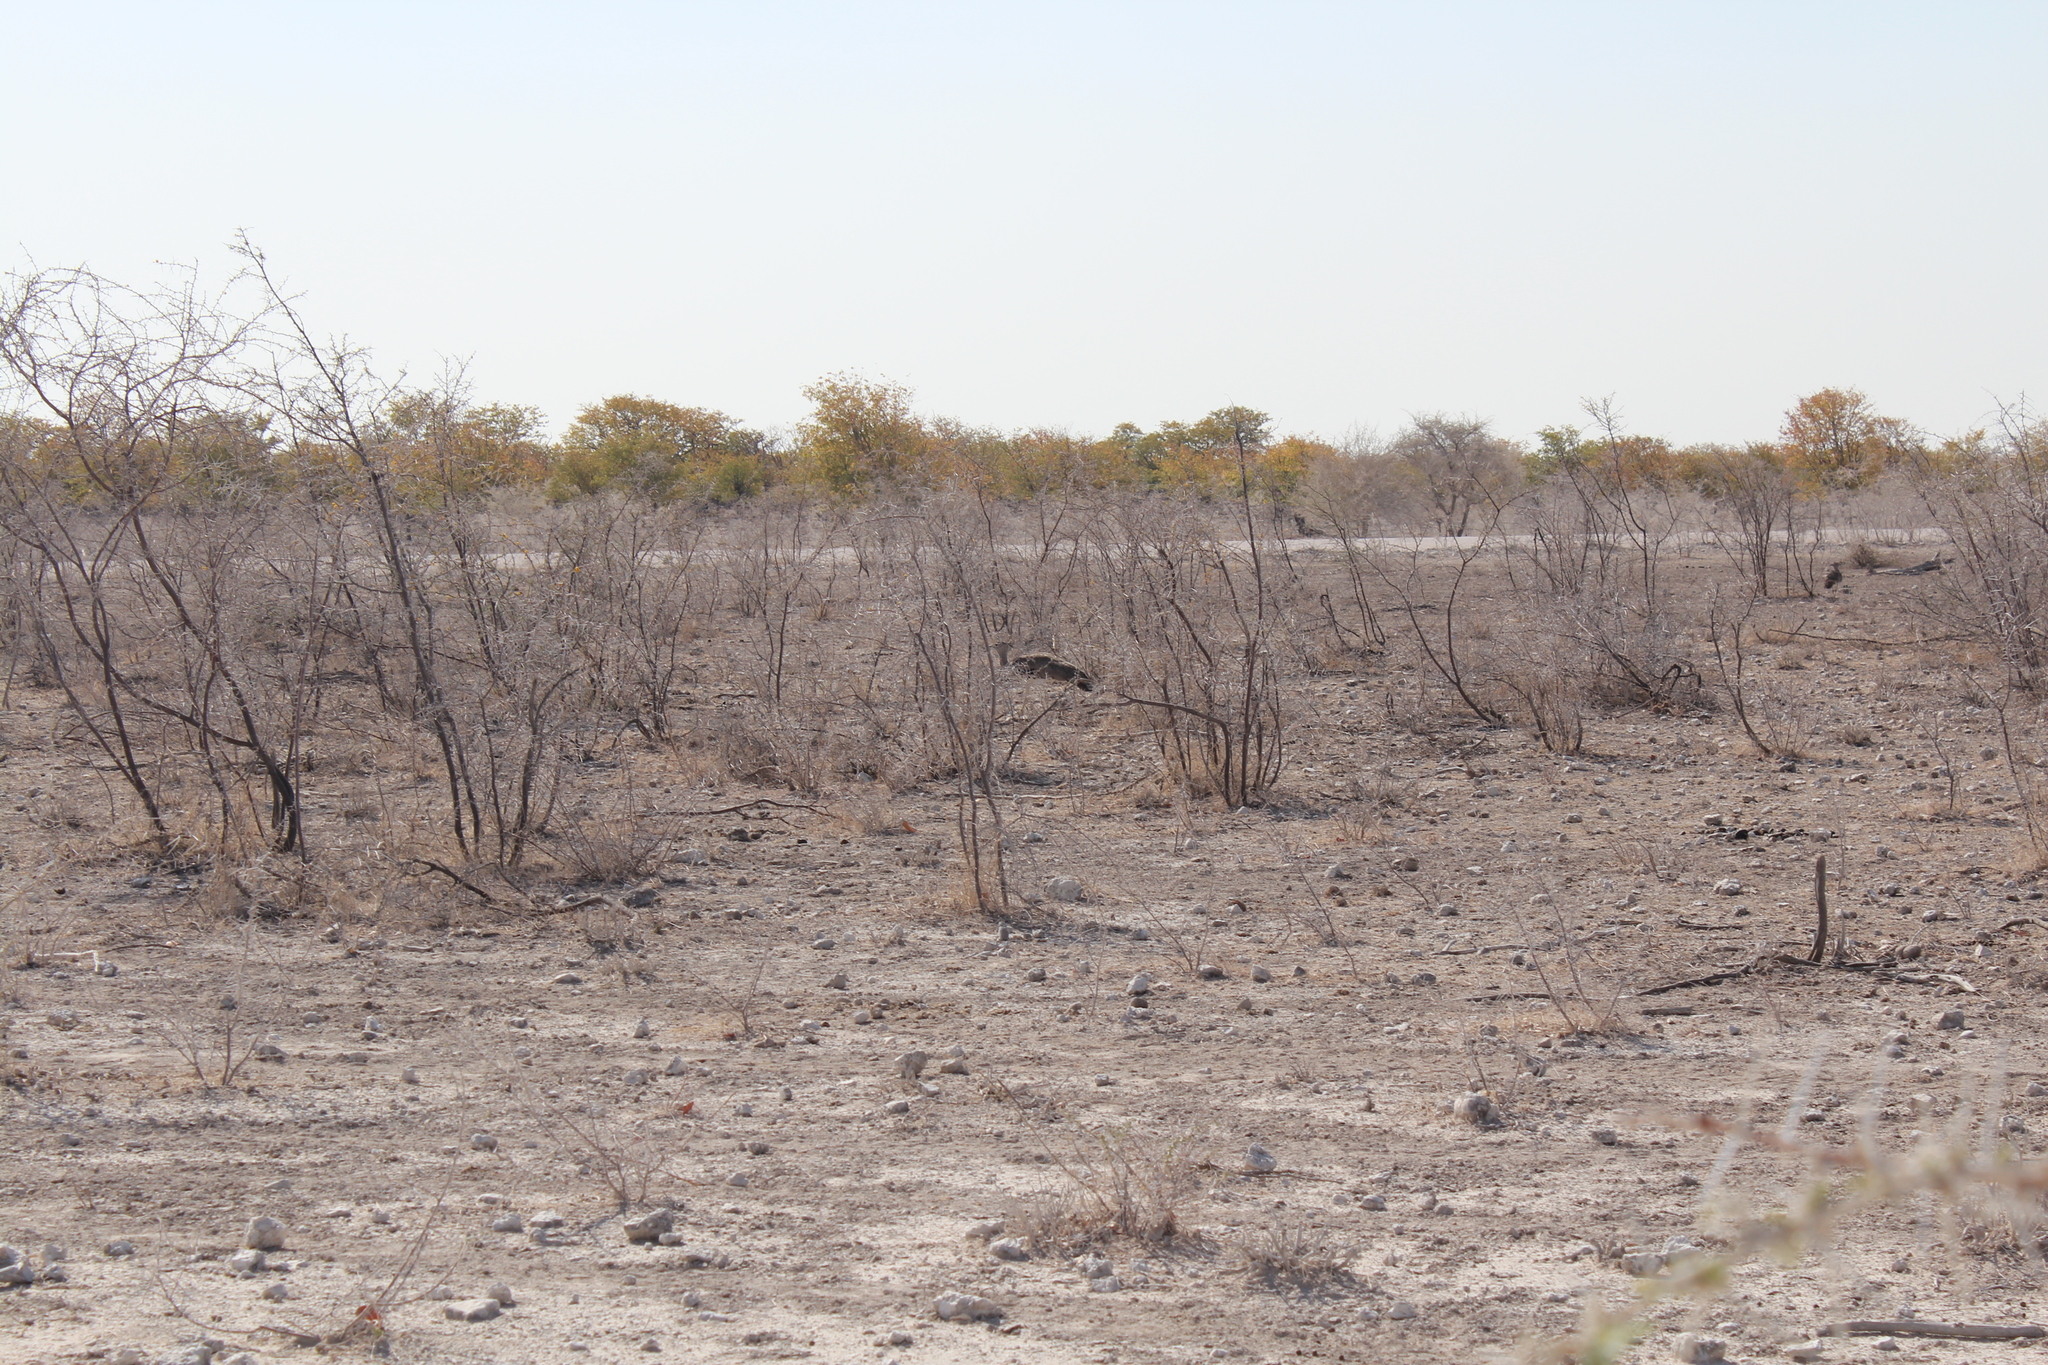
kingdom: Animalia
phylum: Chordata
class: Aves
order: Otidiformes
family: Otididae
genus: Ardeotis
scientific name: Ardeotis kori
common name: Kori bustard
